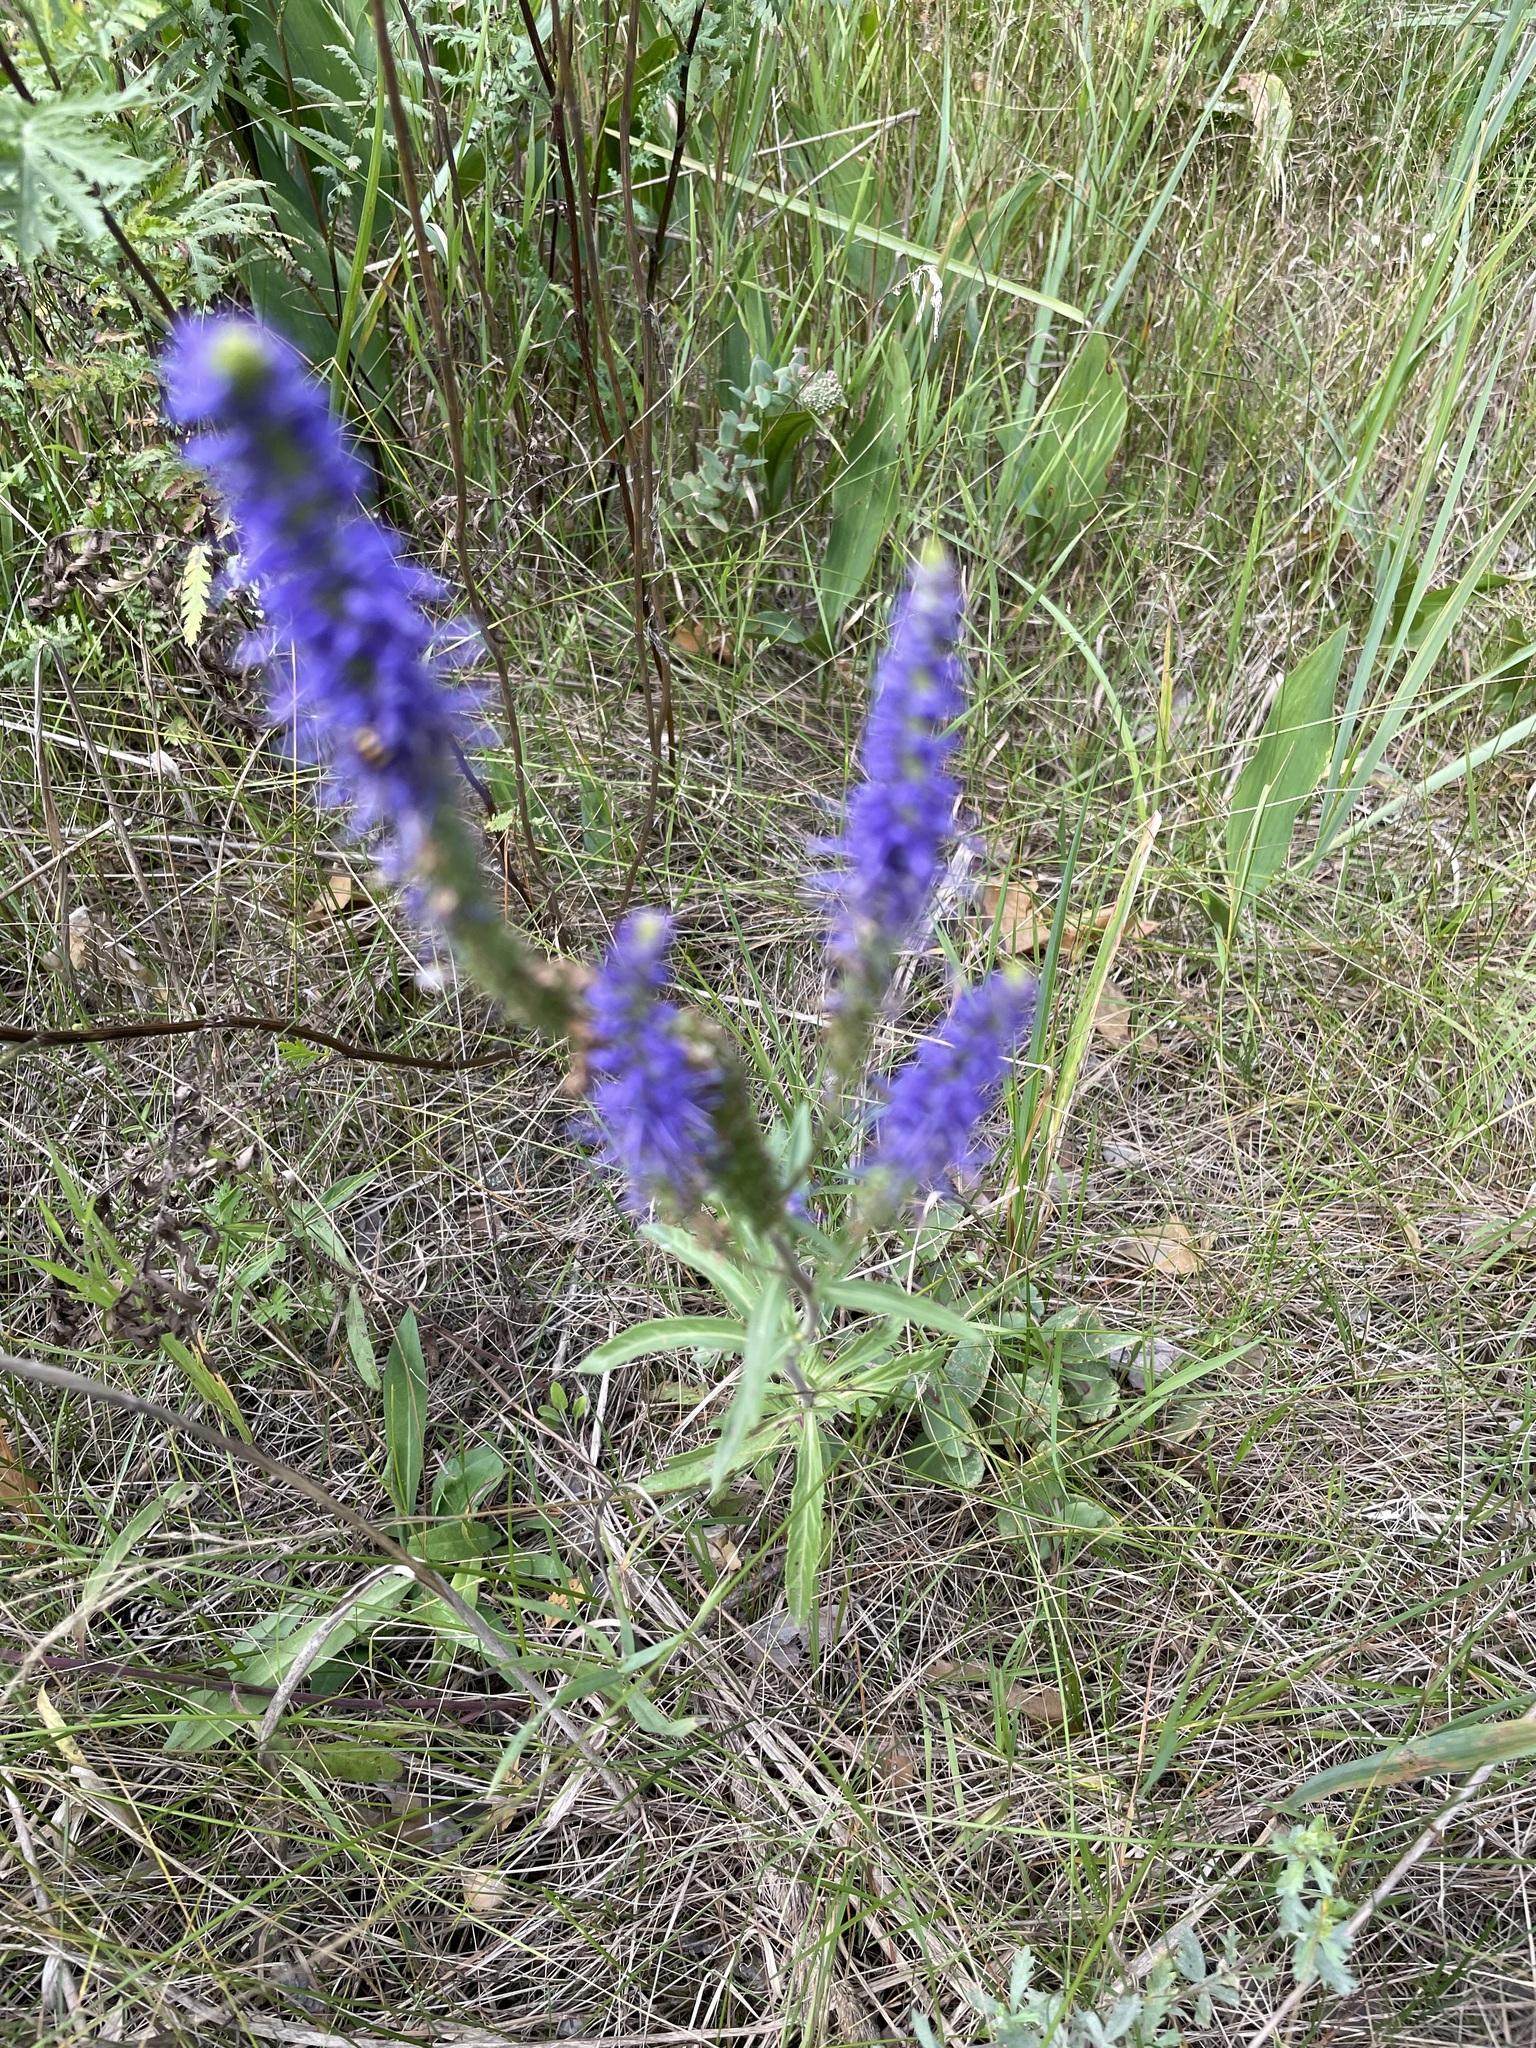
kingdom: Plantae
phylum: Tracheophyta
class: Magnoliopsida
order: Lamiales
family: Plantaginaceae
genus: Veronica
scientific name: Veronica spicata
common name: Spiked speedwell
